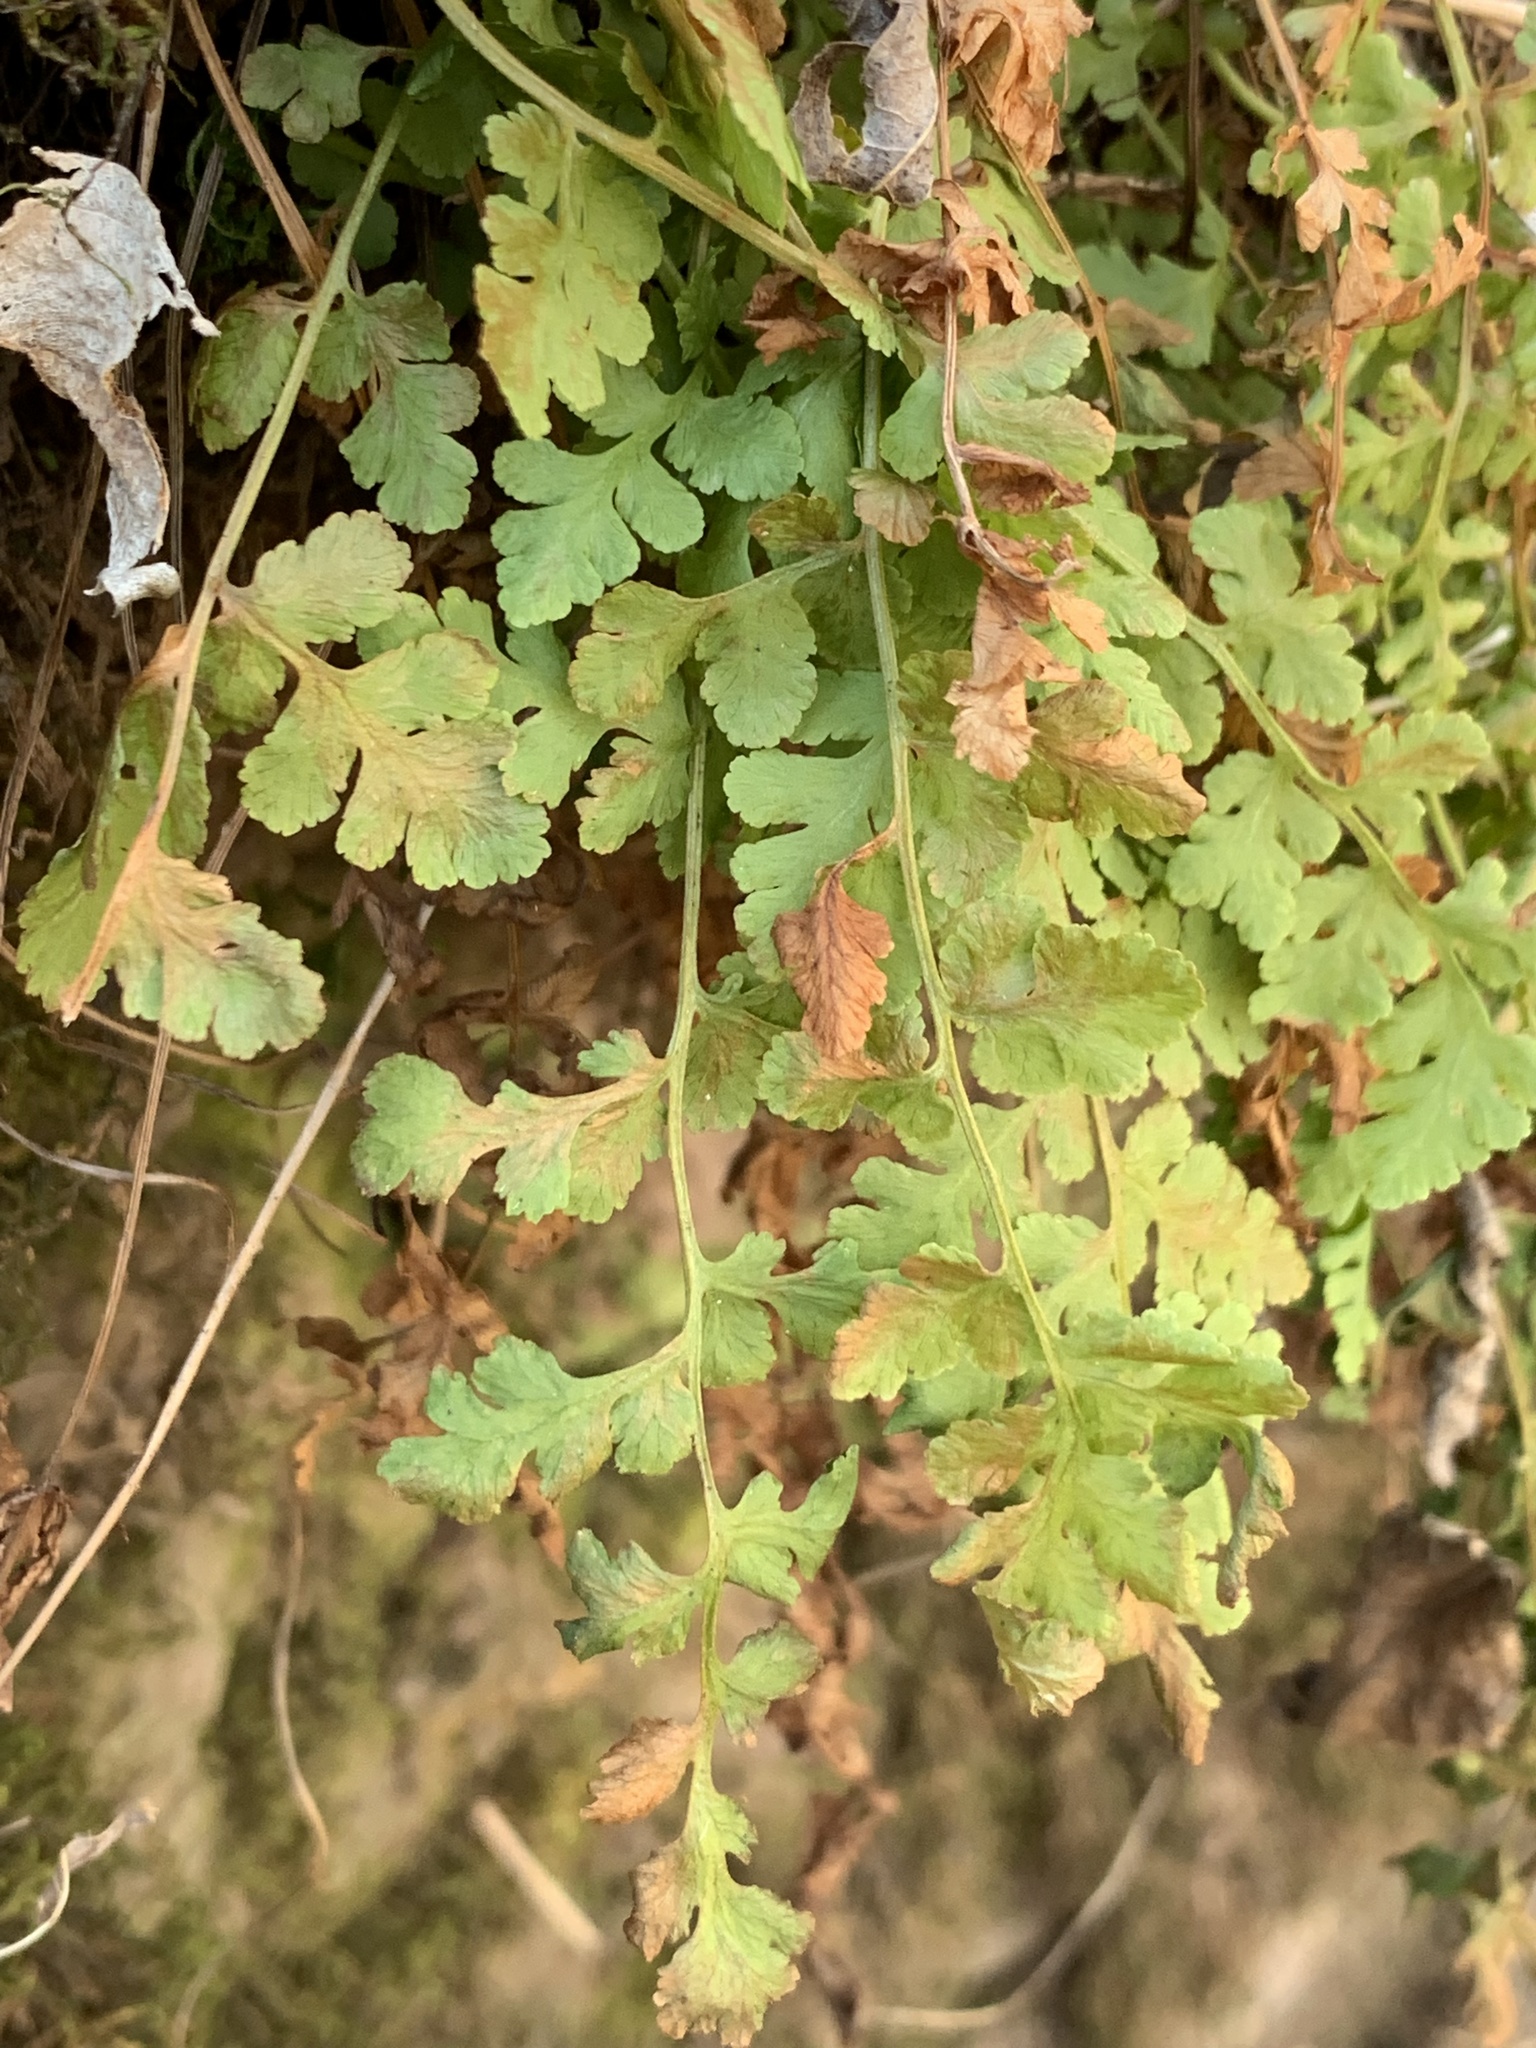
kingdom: Plantae
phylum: Tracheophyta
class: Polypodiopsida
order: Polypodiales
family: Woodsiaceae
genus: Physematium
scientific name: Physematium obtusum
